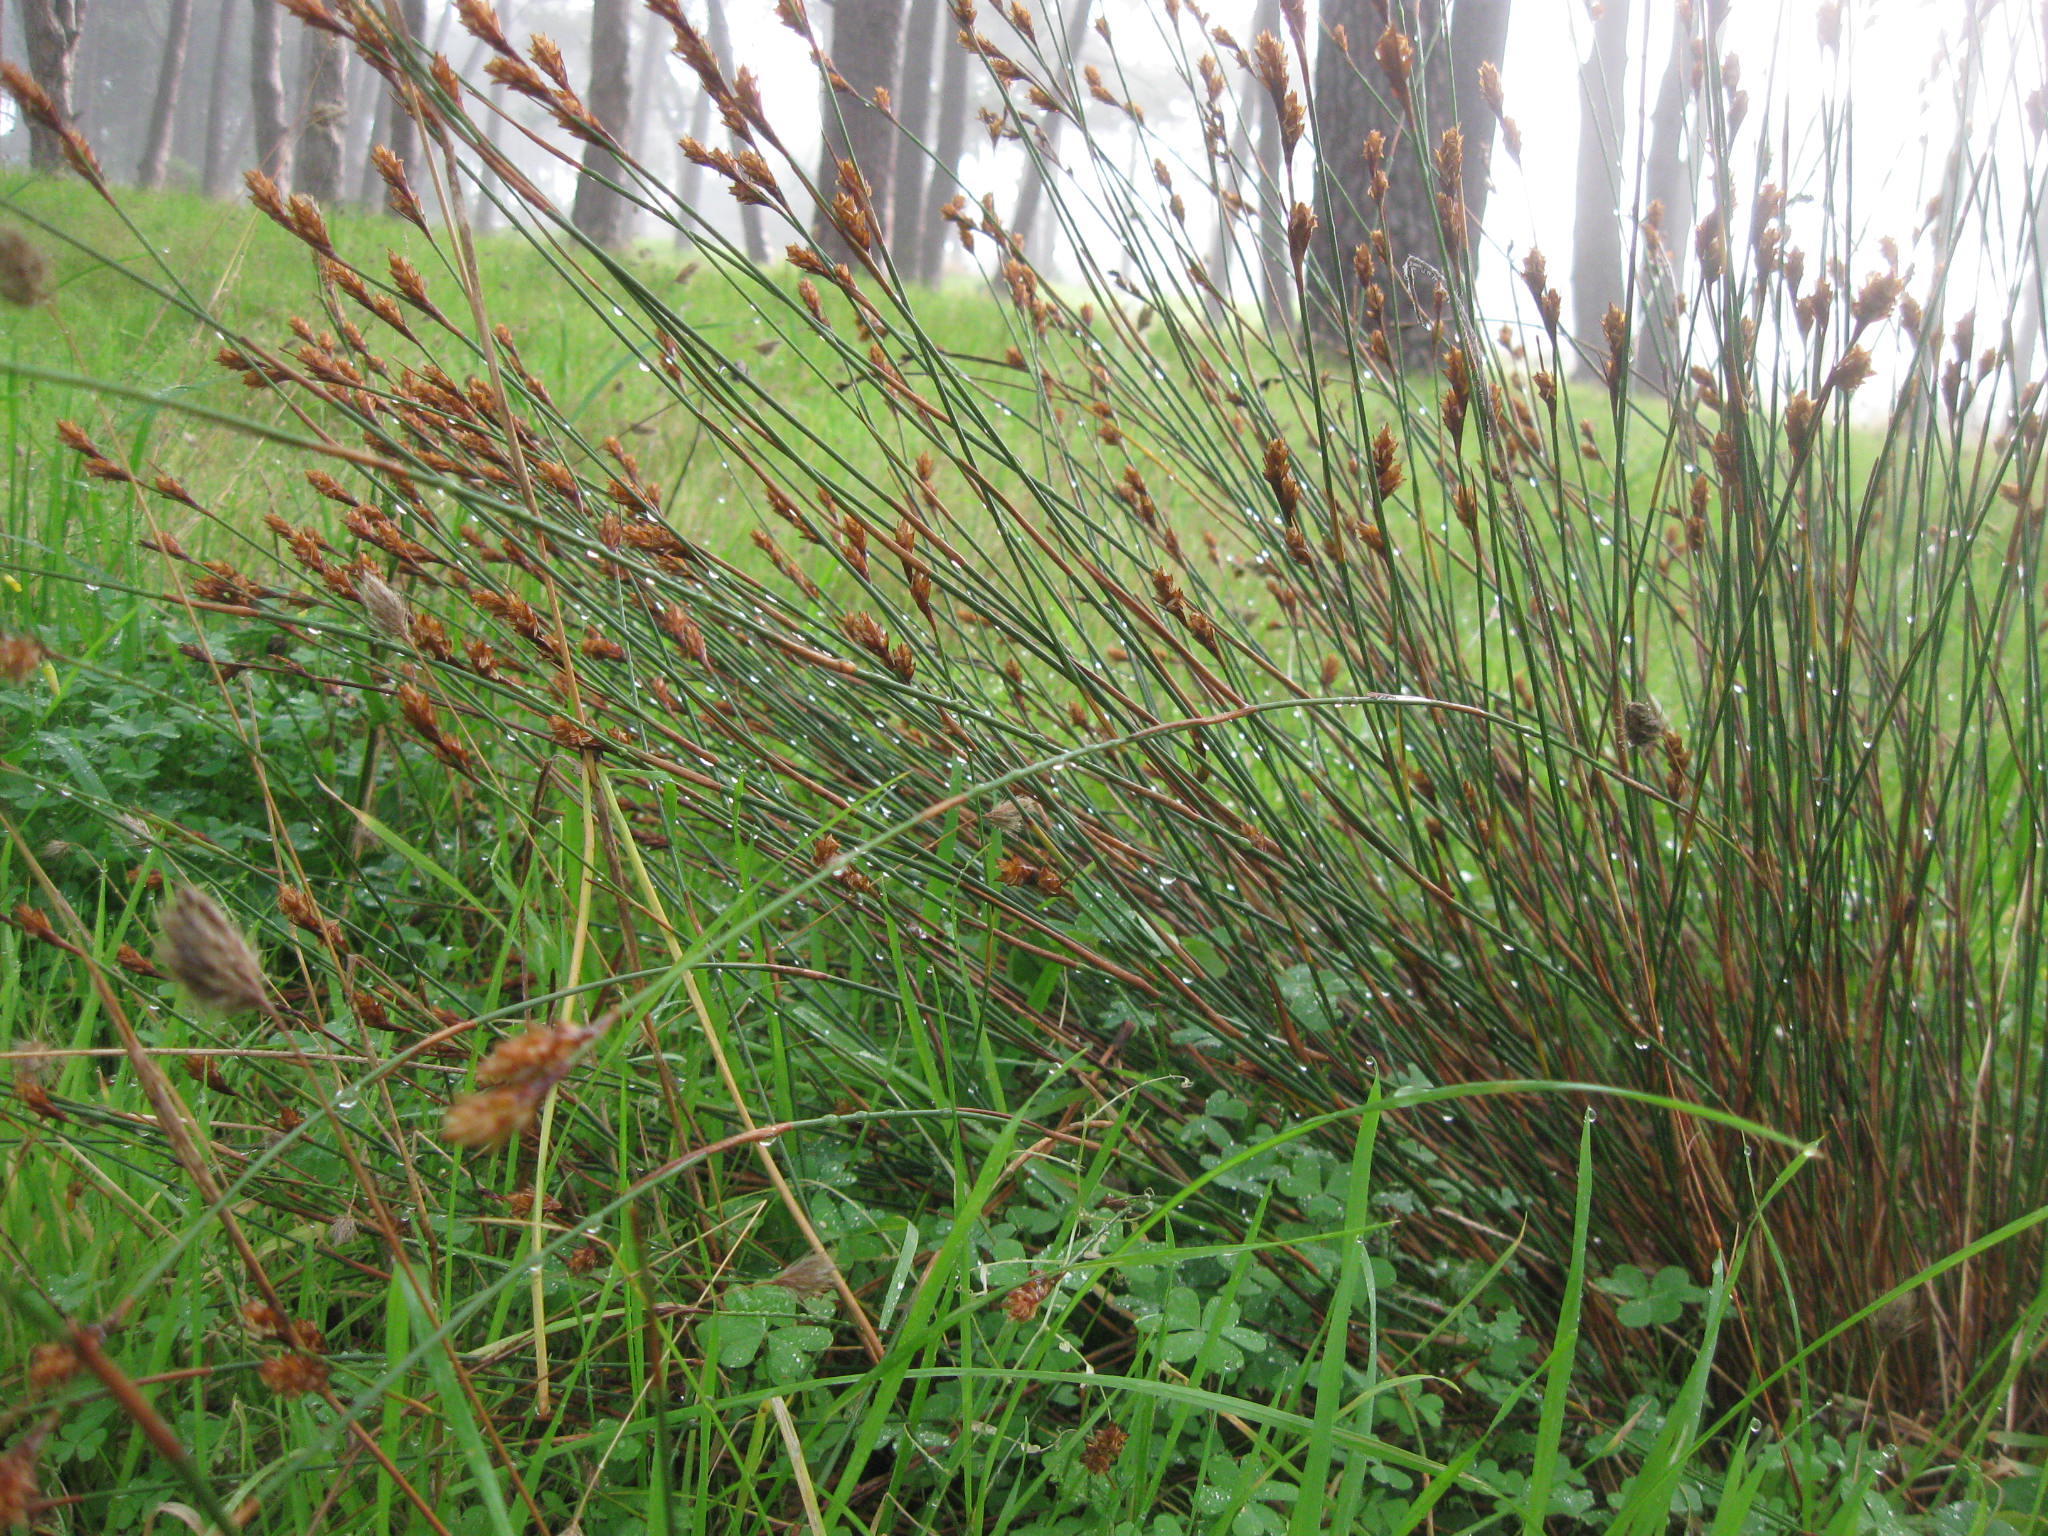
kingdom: Plantae
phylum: Tracheophyta
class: Liliopsida
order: Poales
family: Restionaceae
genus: Restio
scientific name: Restio quinquefarius
